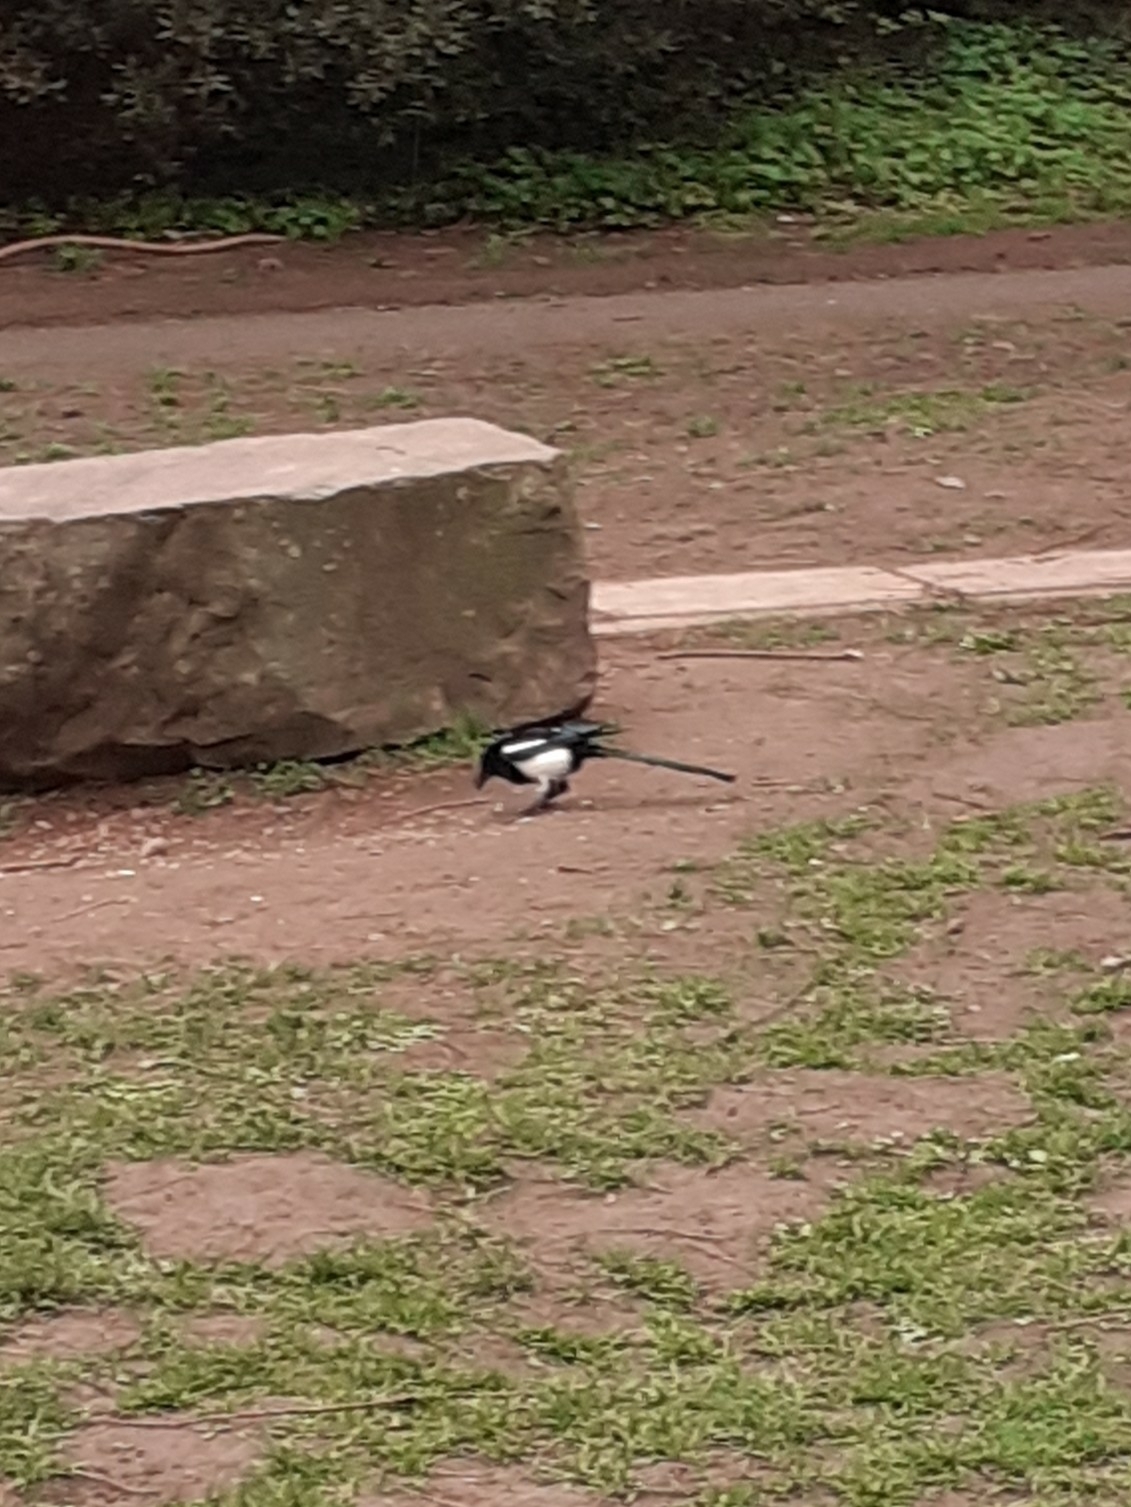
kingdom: Animalia
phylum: Chordata
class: Aves
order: Passeriformes
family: Corvidae
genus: Pica
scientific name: Pica pica
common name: Eurasian magpie
